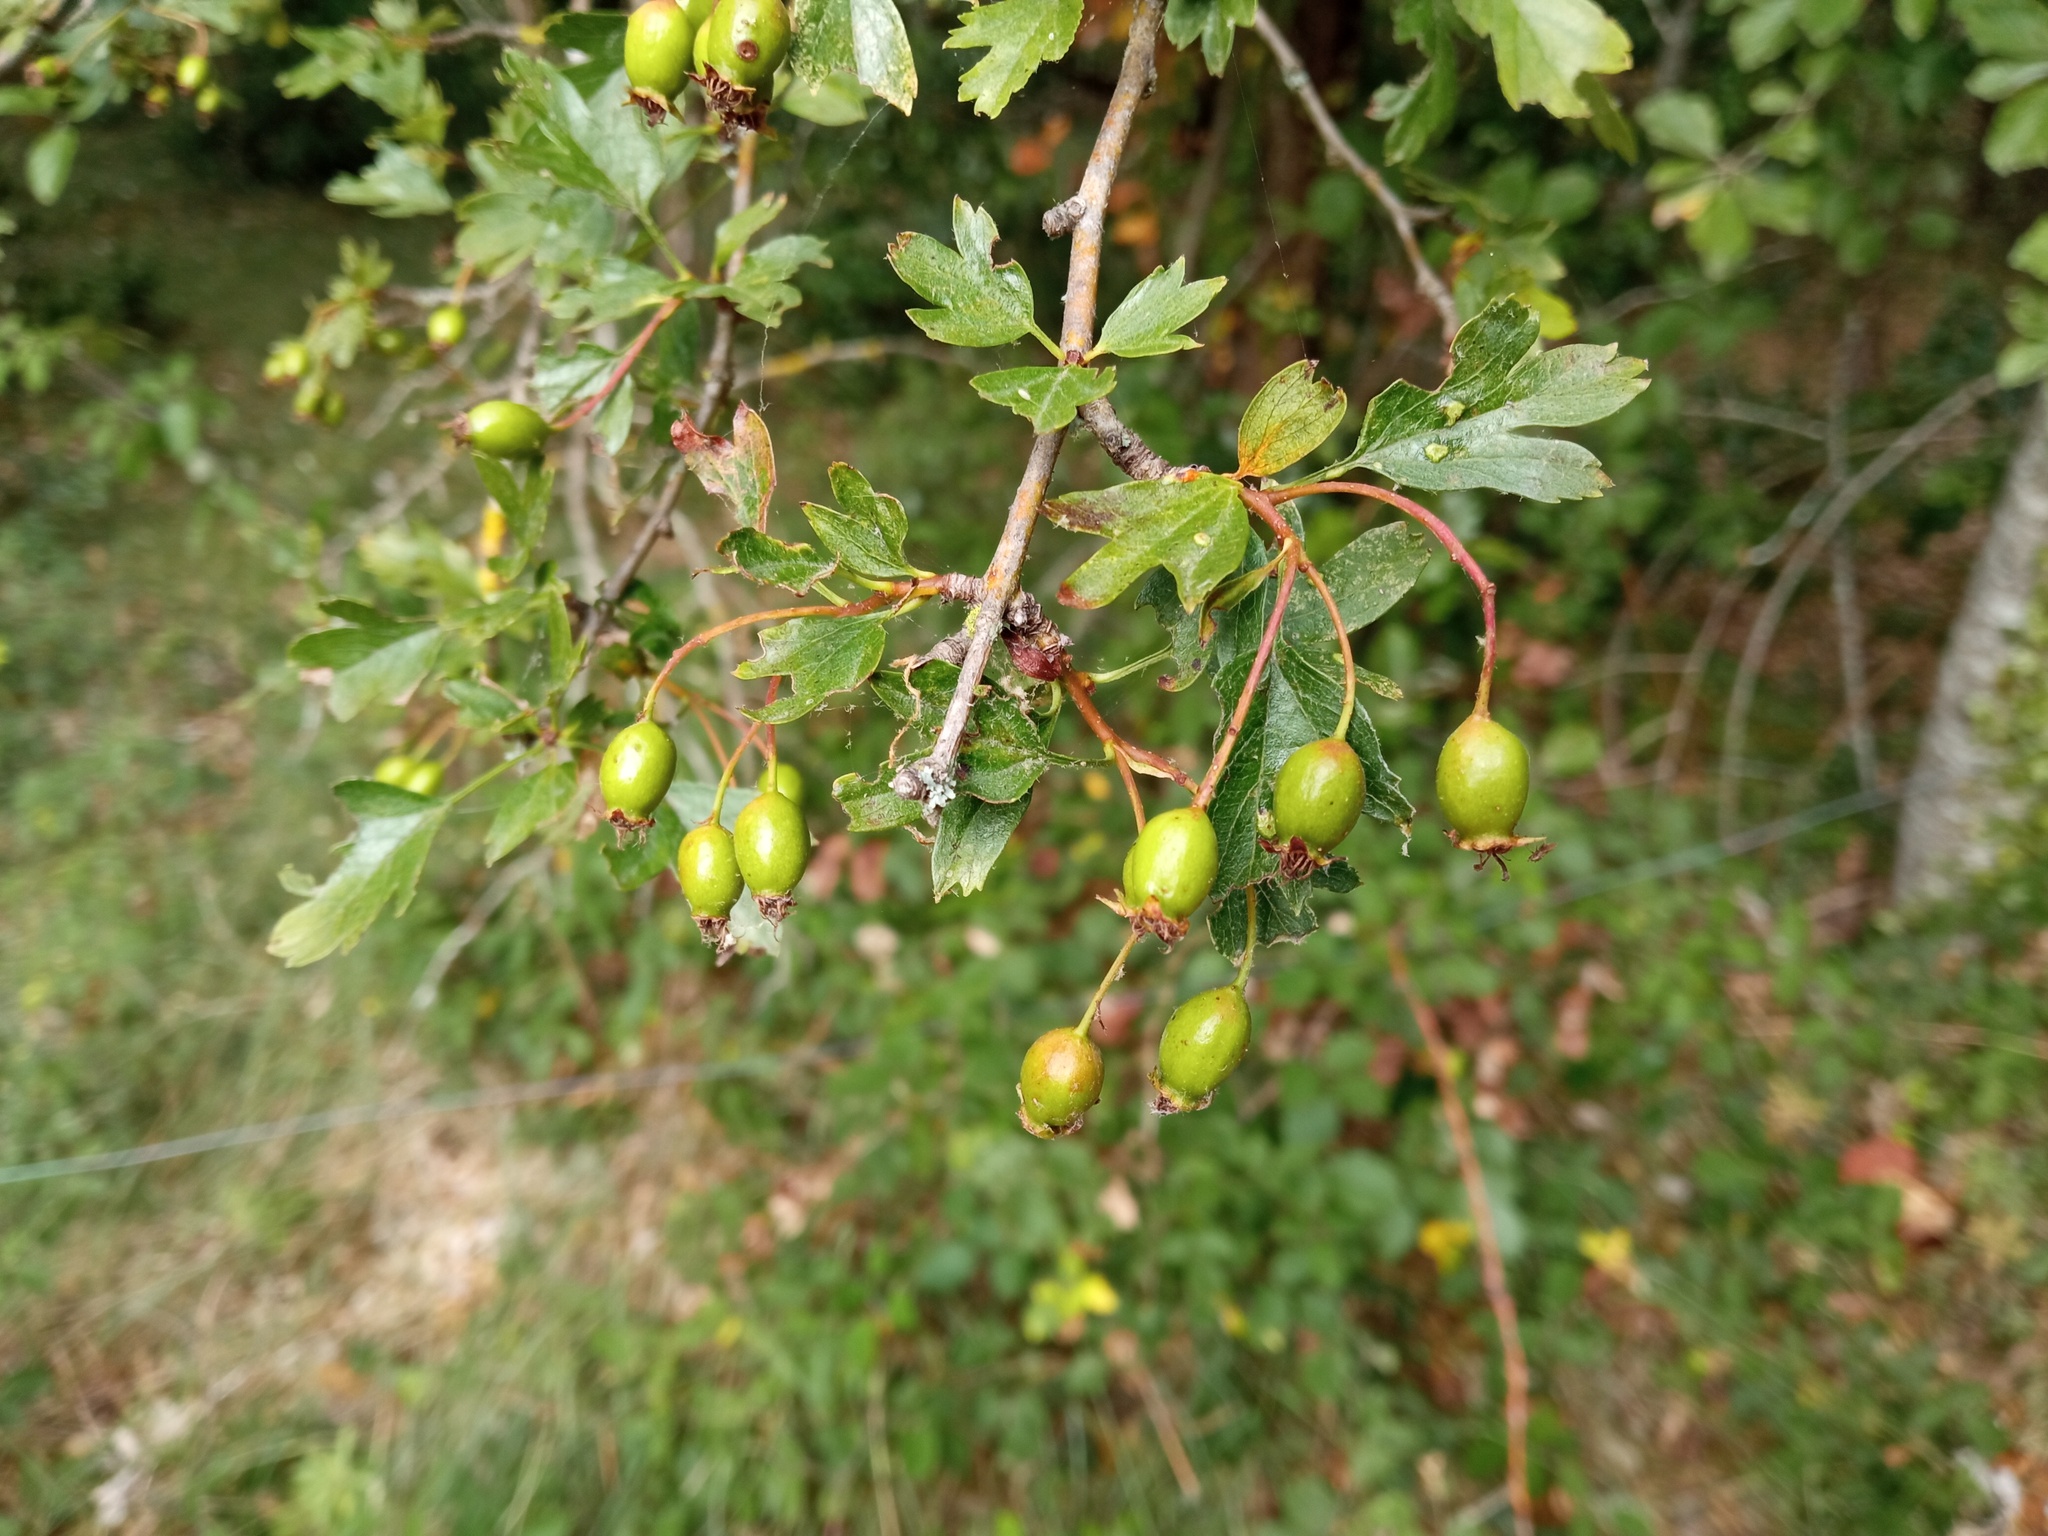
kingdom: Plantae
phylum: Tracheophyta
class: Magnoliopsida
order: Rosales
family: Rosaceae
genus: Crataegus
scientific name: Crataegus monogyna
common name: Hawthorn
